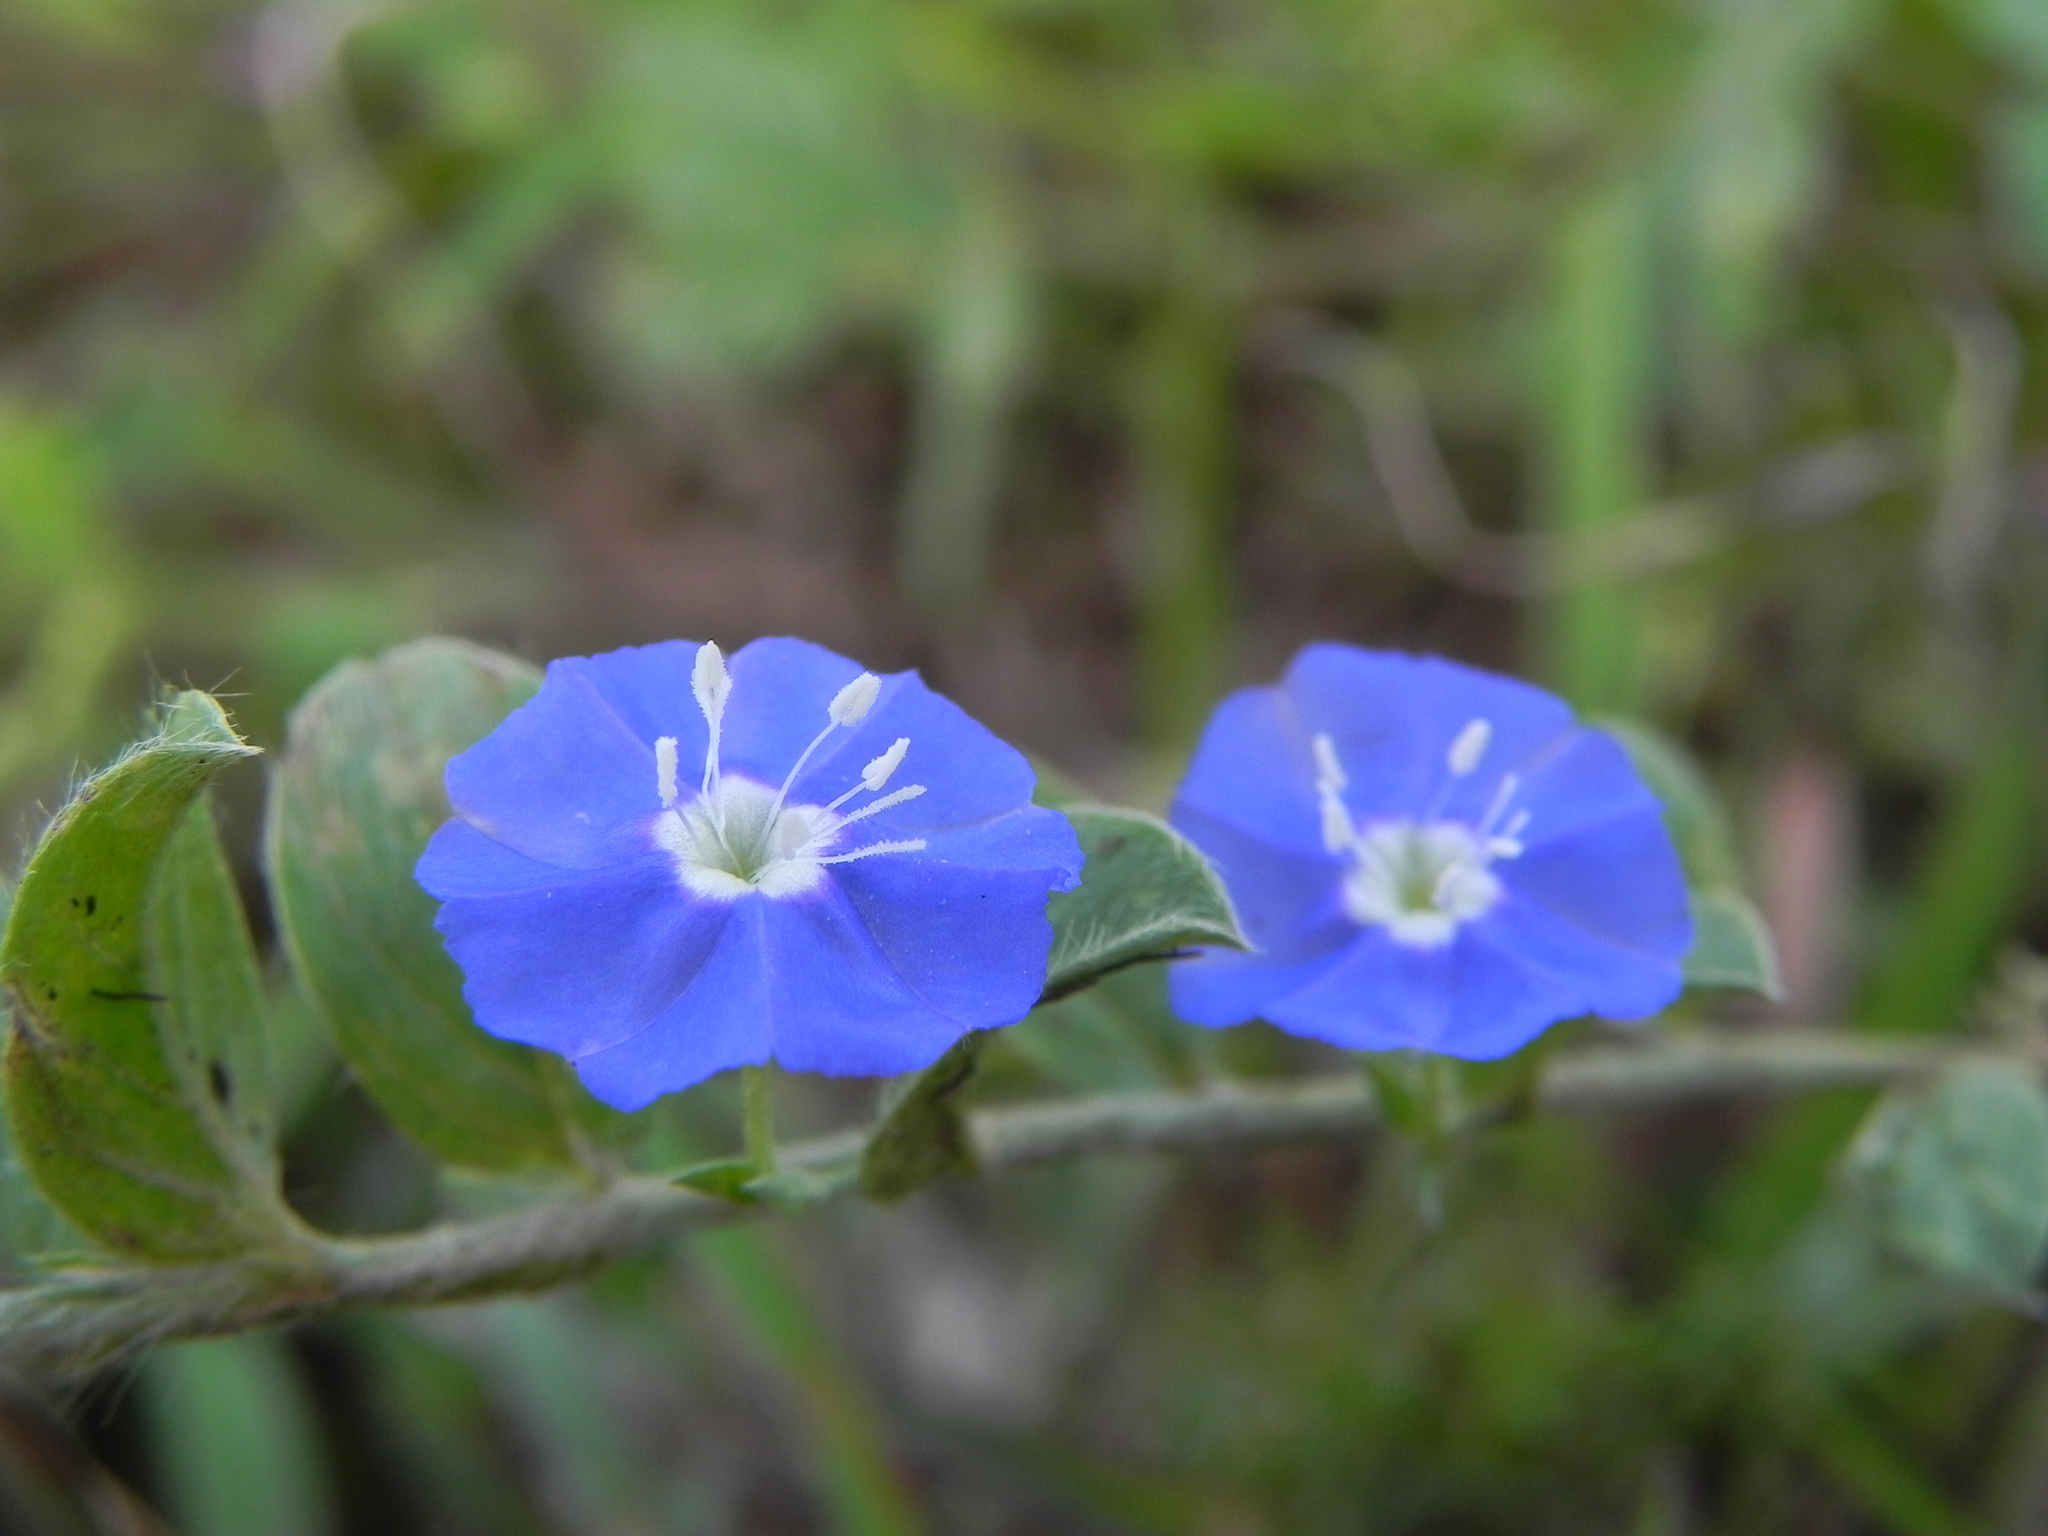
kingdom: Plantae
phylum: Tracheophyta
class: Magnoliopsida
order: Solanales
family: Convolvulaceae
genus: Evolvulus
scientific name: Evolvulus alsinoides
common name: Slender dwarf morning-glory
